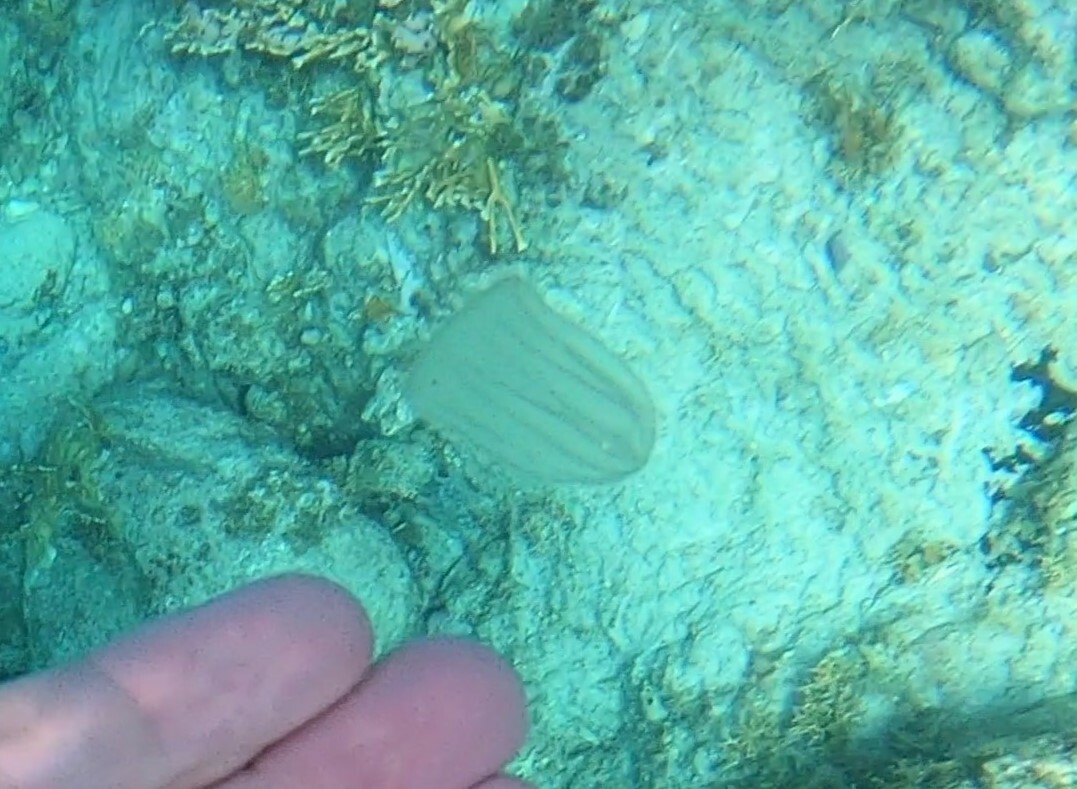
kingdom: Animalia
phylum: Ctenophora
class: Nuda
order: Beroida
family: Beroidae
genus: Beroe
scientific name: Beroe ovata
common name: Flattened helmet comb jelly
